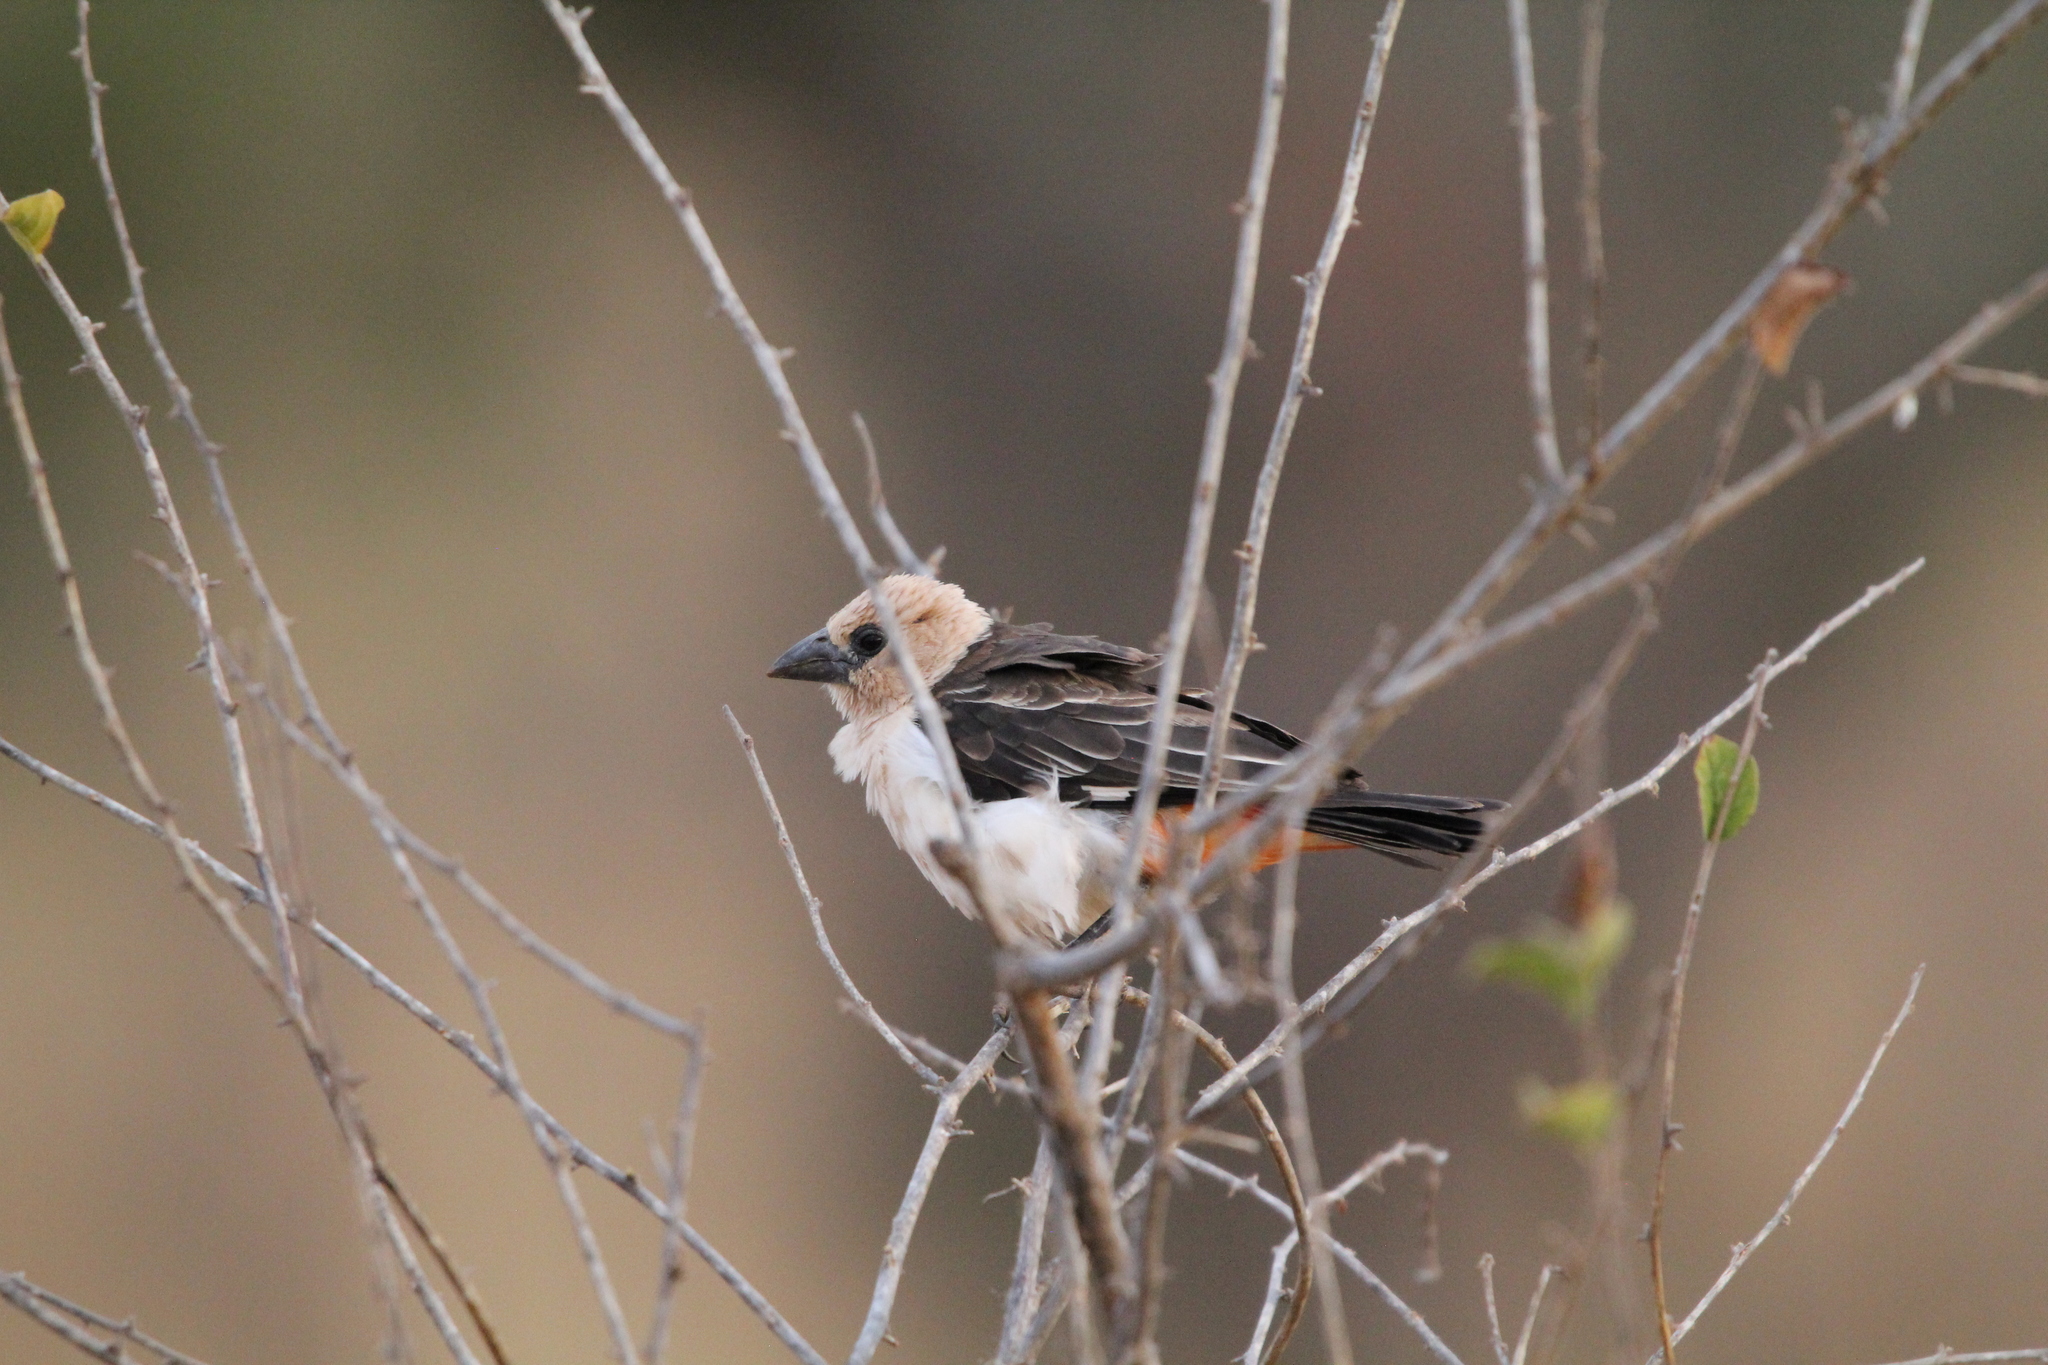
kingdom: Animalia
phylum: Chordata
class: Aves
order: Passeriformes
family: Ploceidae
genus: Dinemellia
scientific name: Dinemellia dinemelli
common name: White-headed buffalo weaver
